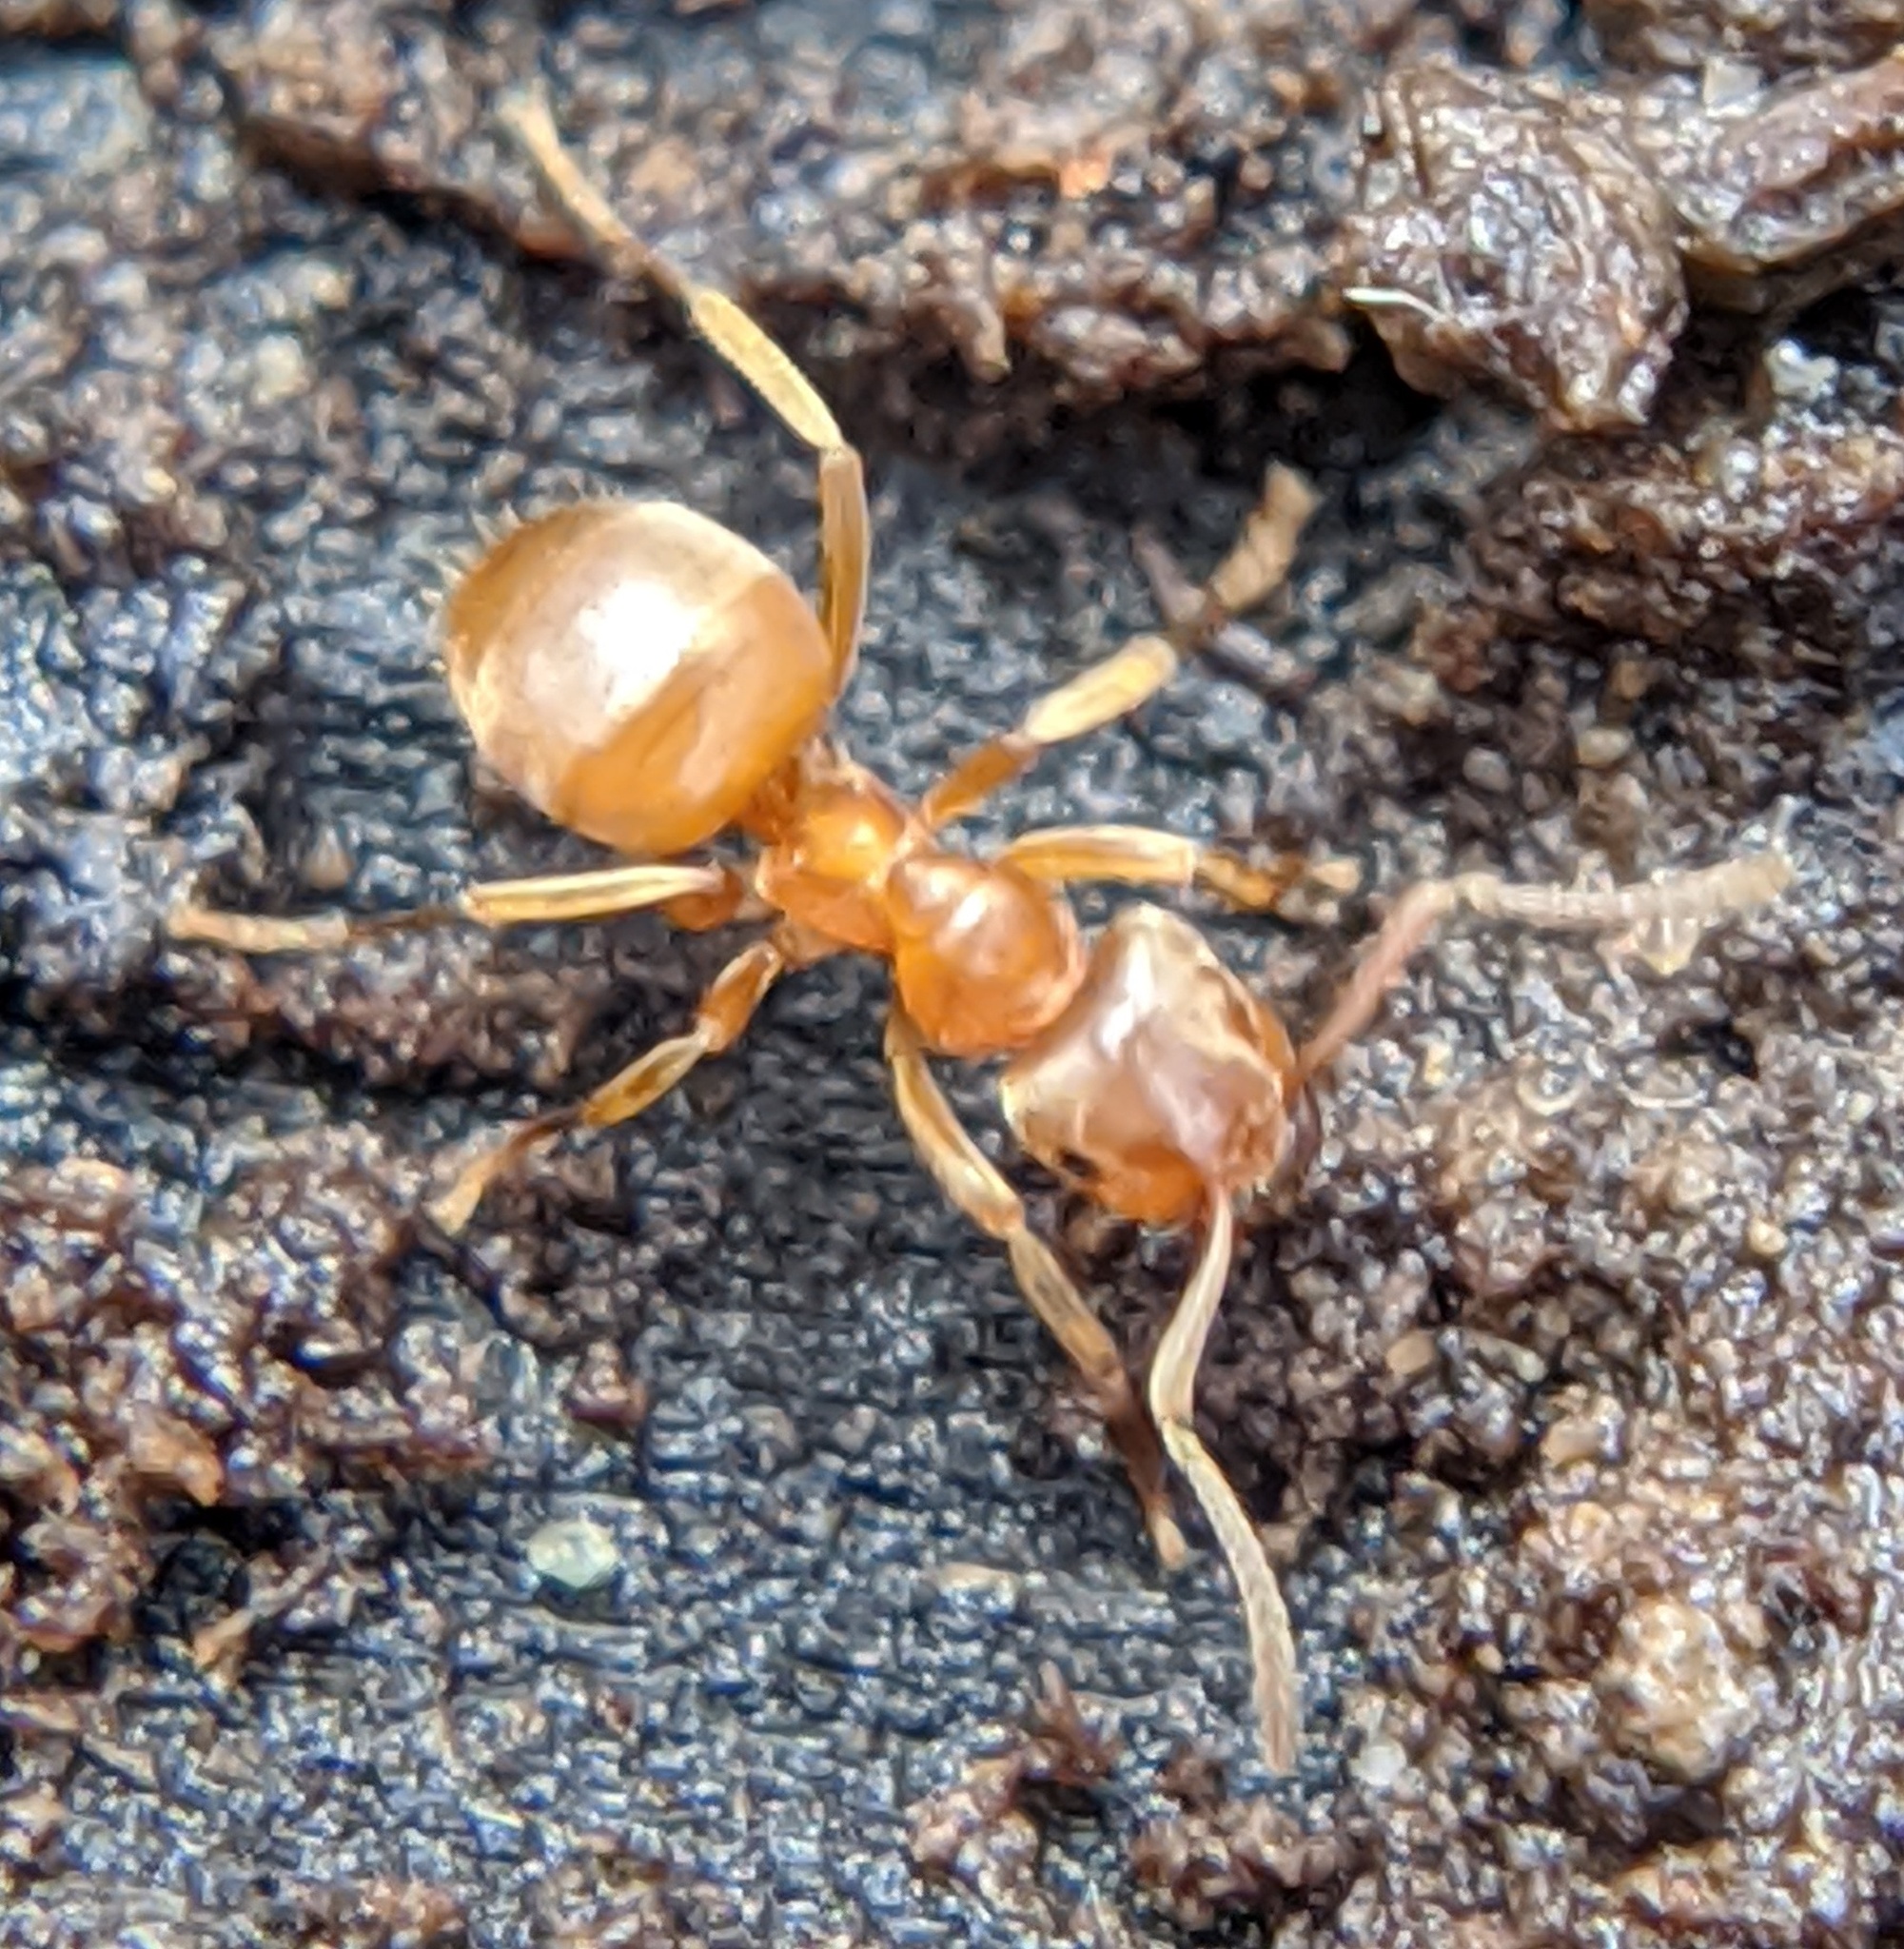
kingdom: Animalia
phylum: Arthropoda
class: Insecta
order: Hymenoptera
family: Formicidae
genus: Lasius
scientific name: Lasius
